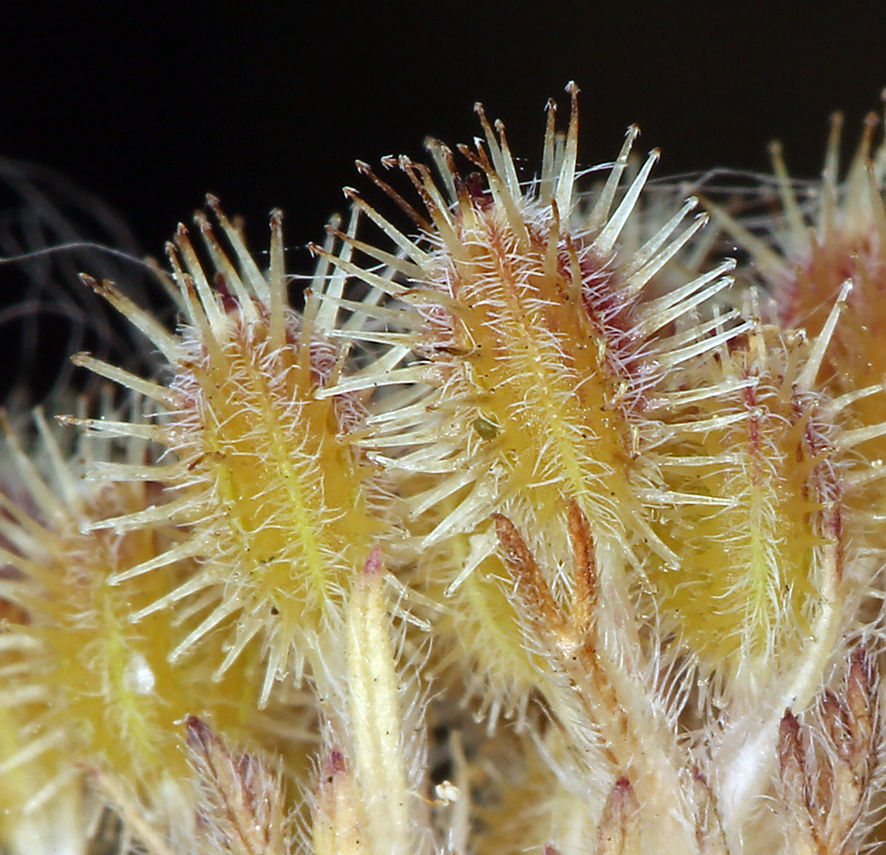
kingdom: Plantae
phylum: Tracheophyta
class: Magnoliopsida
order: Apiales
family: Apiaceae
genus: Daucus
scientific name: Daucus pusillus
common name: Southwest wild carrot
